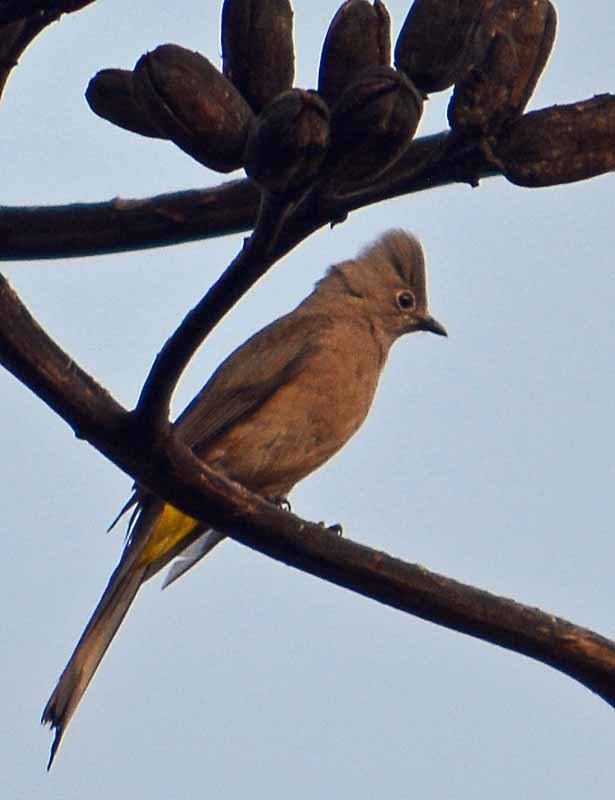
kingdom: Animalia
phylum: Chordata
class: Aves
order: Passeriformes
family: Ptilogonatidae
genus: Ptilogonys
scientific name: Ptilogonys cinereus
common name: Gray silky-flycatcher
